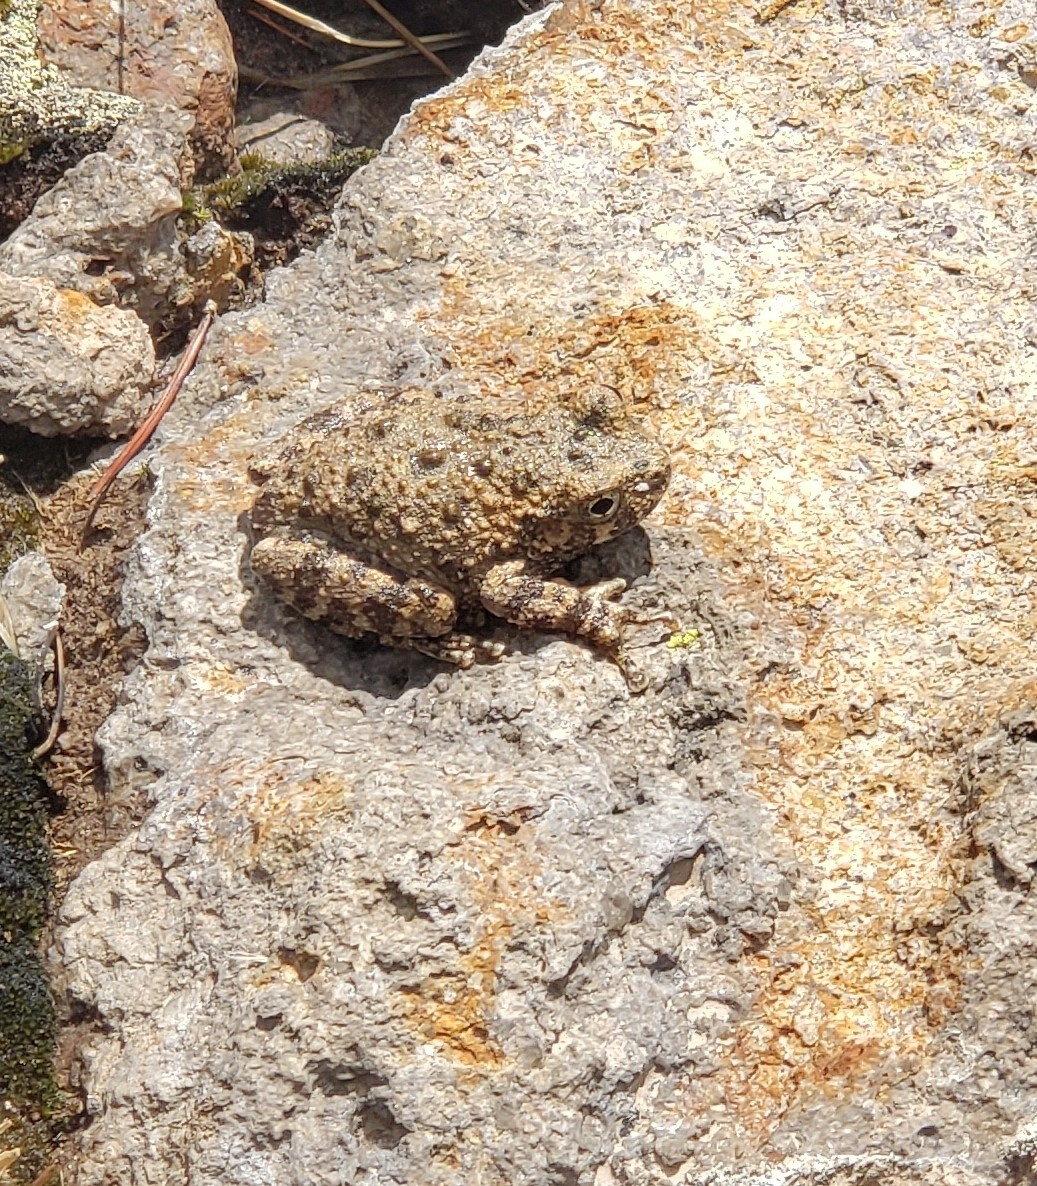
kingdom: Animalia
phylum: Chordata
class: Amphibia
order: Anura
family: Hylidae
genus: Dryophytes
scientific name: Dryophytes arenicolor
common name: Canyon treefrog
